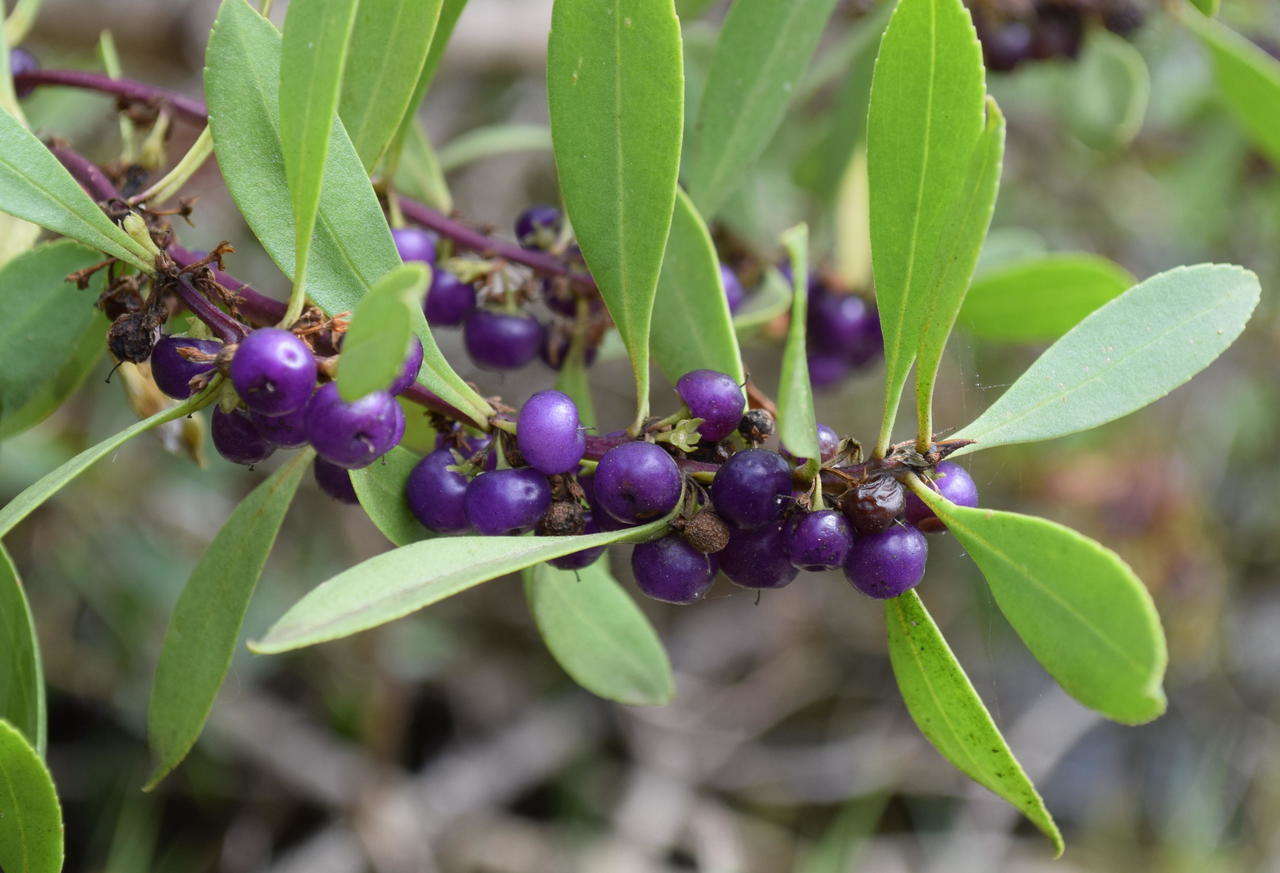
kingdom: Plantae
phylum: Tracheophyta
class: Magnoliopsida
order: Lamiales
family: Scrophulariaceae
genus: Myoporum
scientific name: Myoporum insulare
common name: Common boobialla
